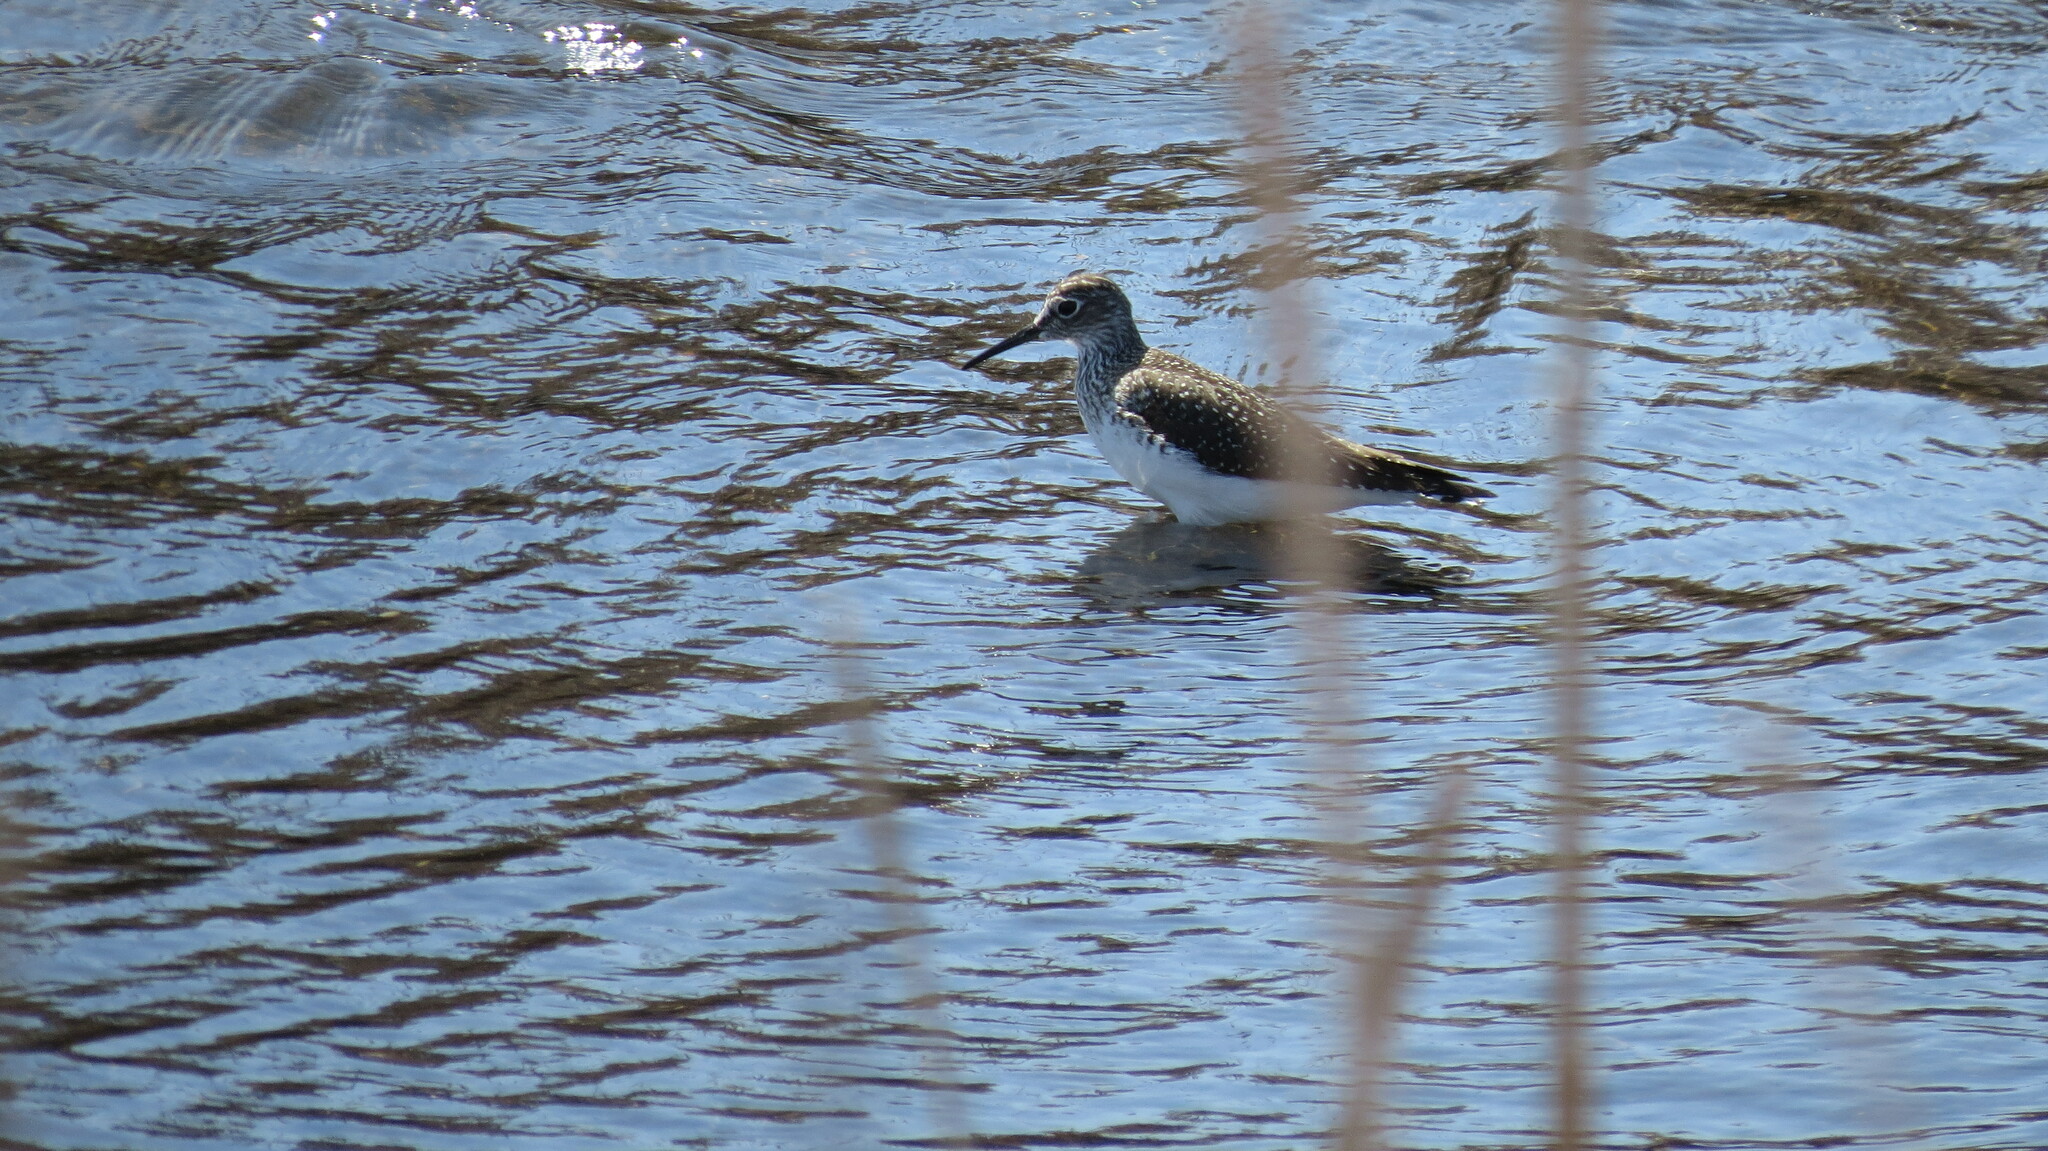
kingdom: Animalia
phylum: Chordata
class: Aves
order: Charadriiformes
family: Scolopacidae
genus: Tringa
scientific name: Tringa solitaria
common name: Solitary sandpiper
